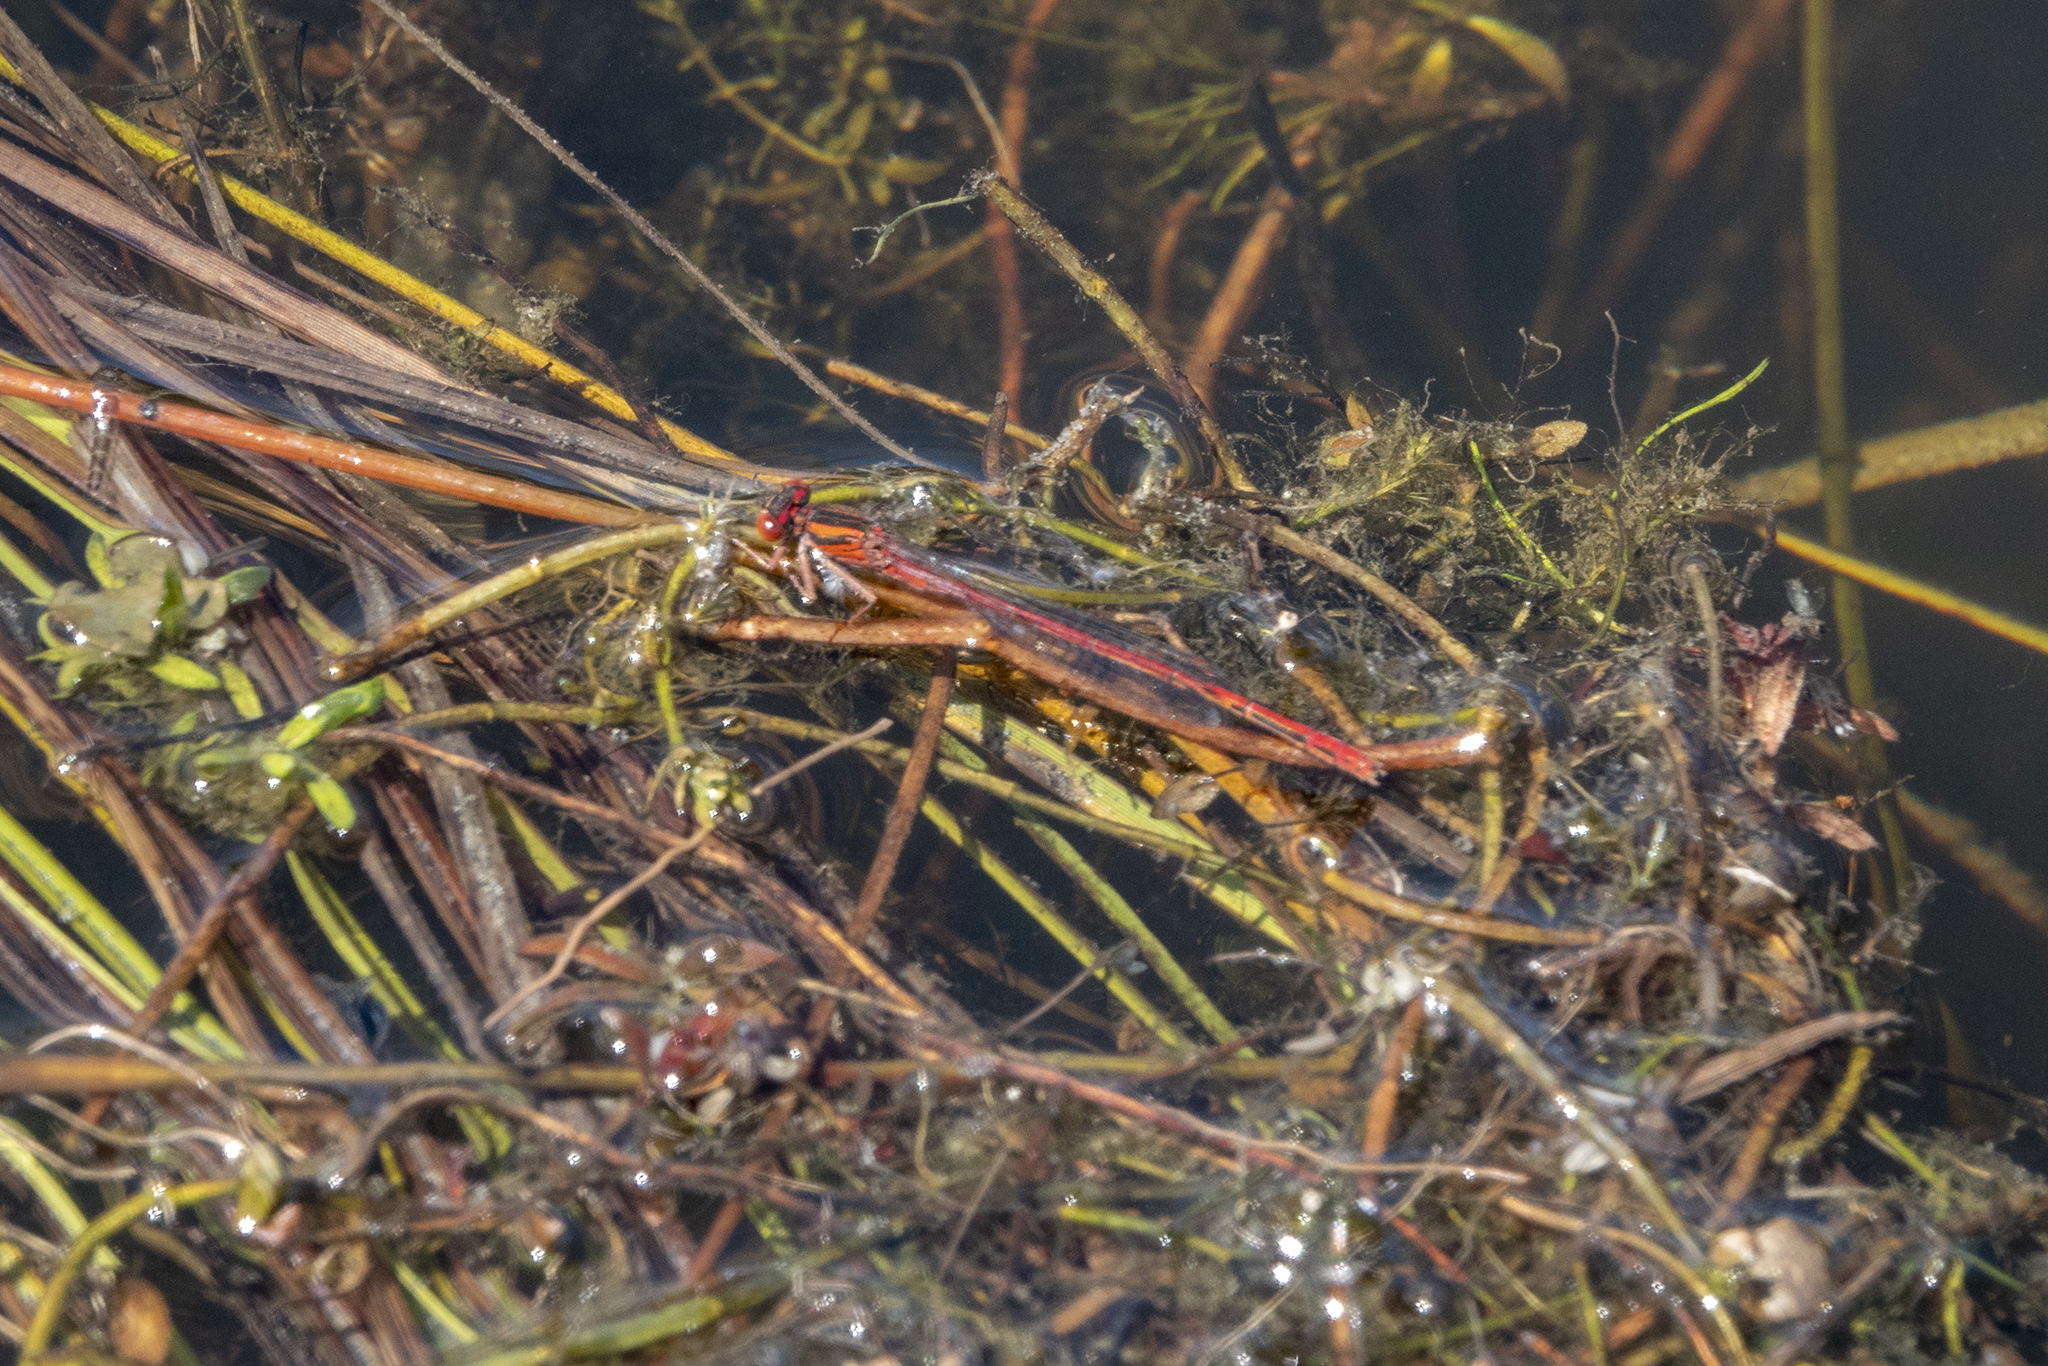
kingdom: Animalia
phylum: Arthropoda
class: Insecta
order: Odonata
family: Coenagrionidae
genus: Xanthocnemis
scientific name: Xanthocnemis zealandica
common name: Common redcoat damselfly
